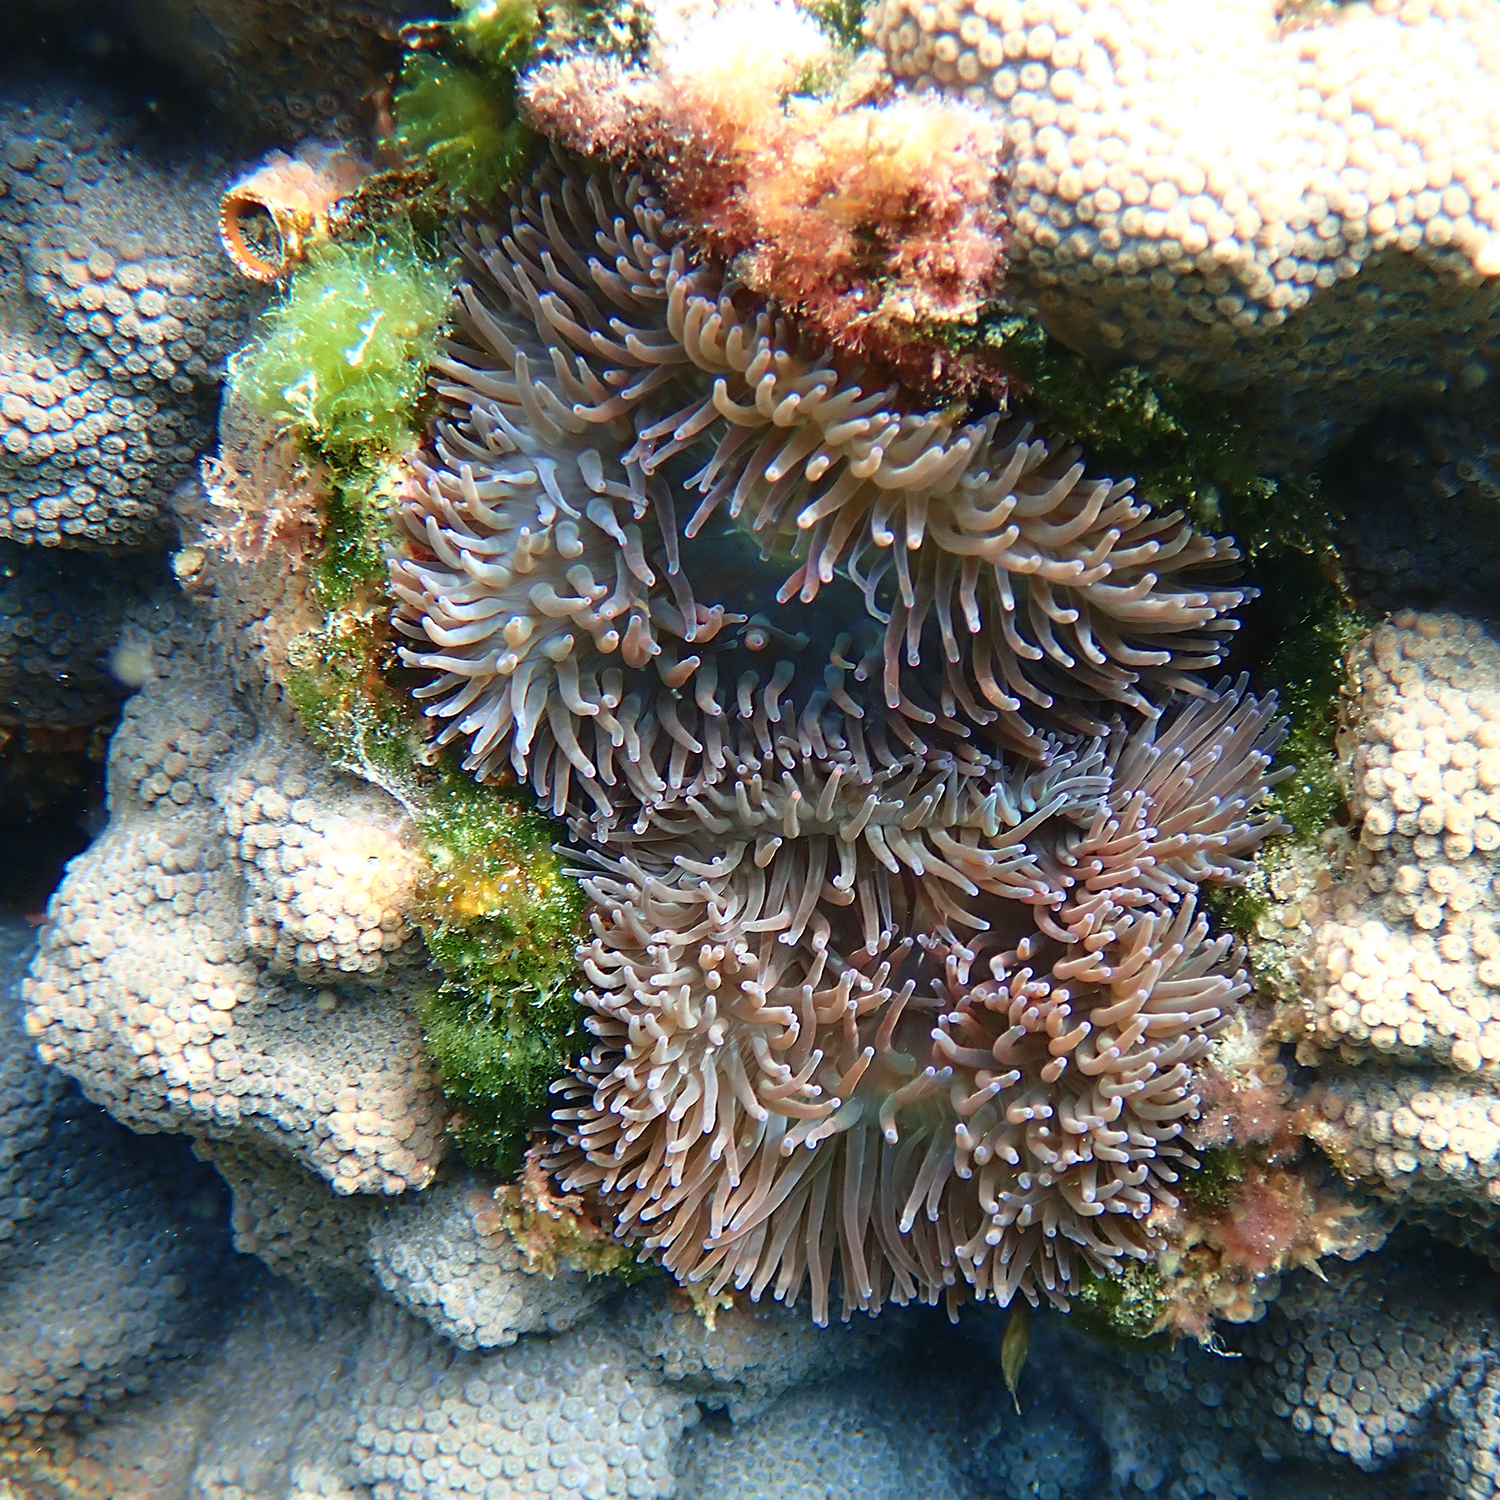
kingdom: Animalia
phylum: Cnidaria
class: Anthozoa
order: Actiniaria
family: Actiniidae
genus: Entacmaea
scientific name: Entacmaea quadricolor
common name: Bulb tentacle sea anemone
